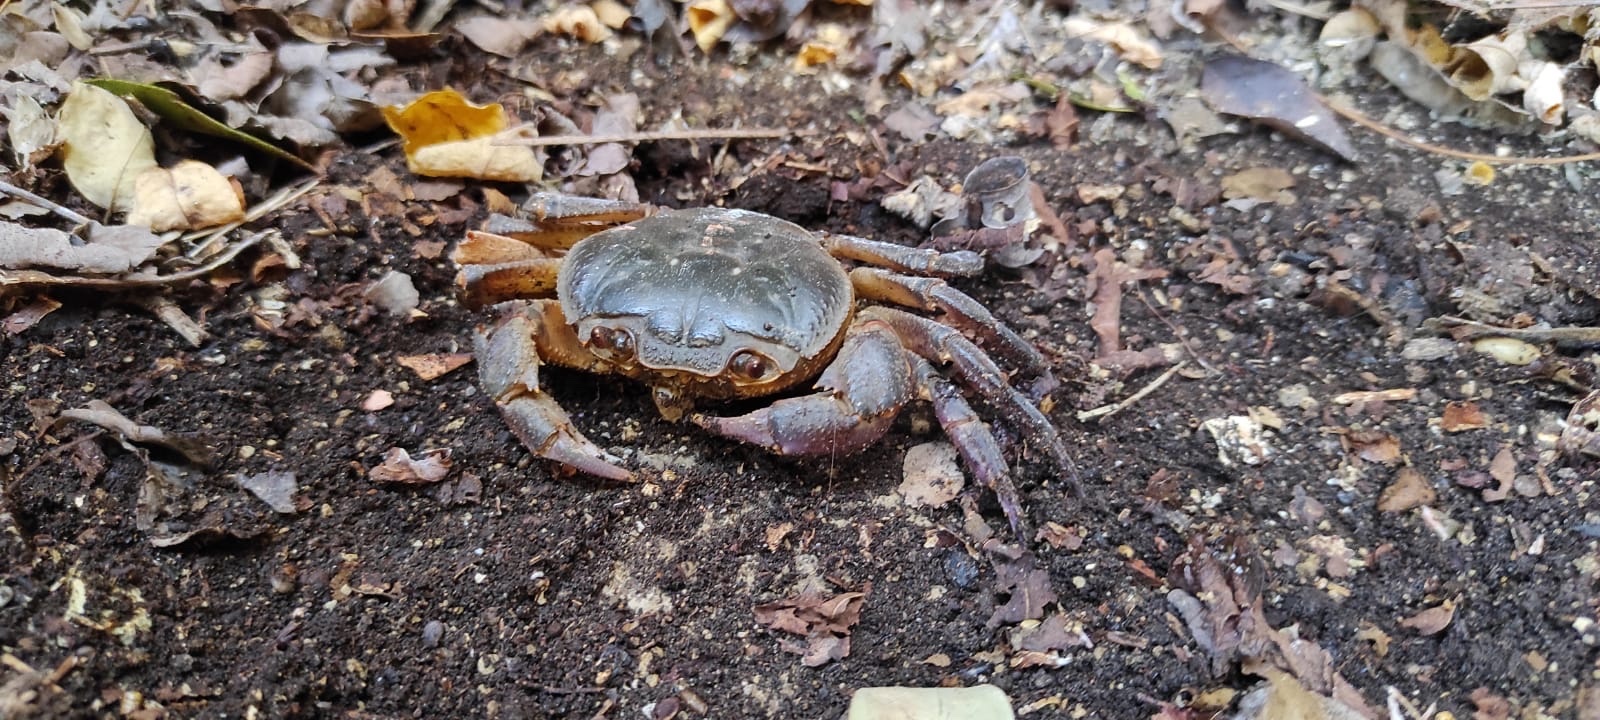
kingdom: Animalia
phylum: Arthropoda
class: Malacostraca
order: Decapoda
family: Potamidae
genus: Potamon
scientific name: Potamon fluviatile
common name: Italian freshwater crab
